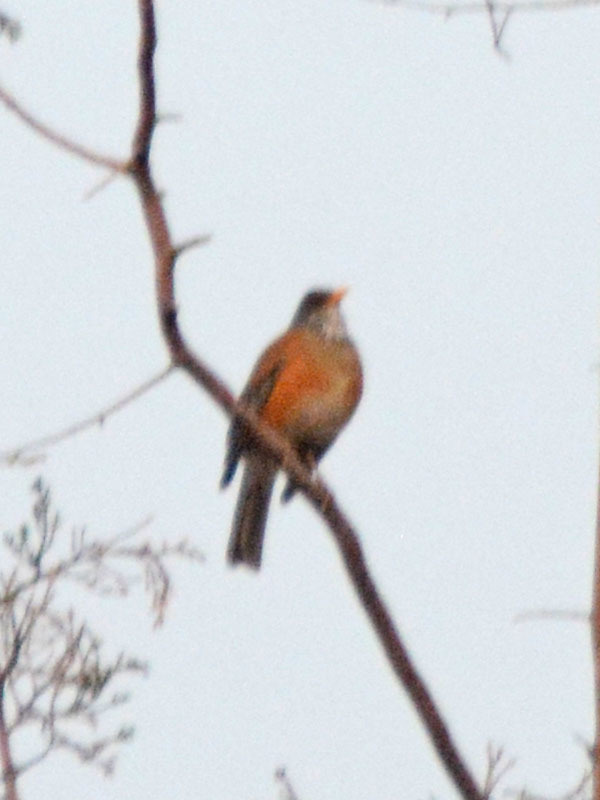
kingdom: Animalia
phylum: Chordata
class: Aves
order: Passeriformes
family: Turdidae
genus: Turdus
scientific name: Turdus rufopalliatus
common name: Rufous-backed robin
